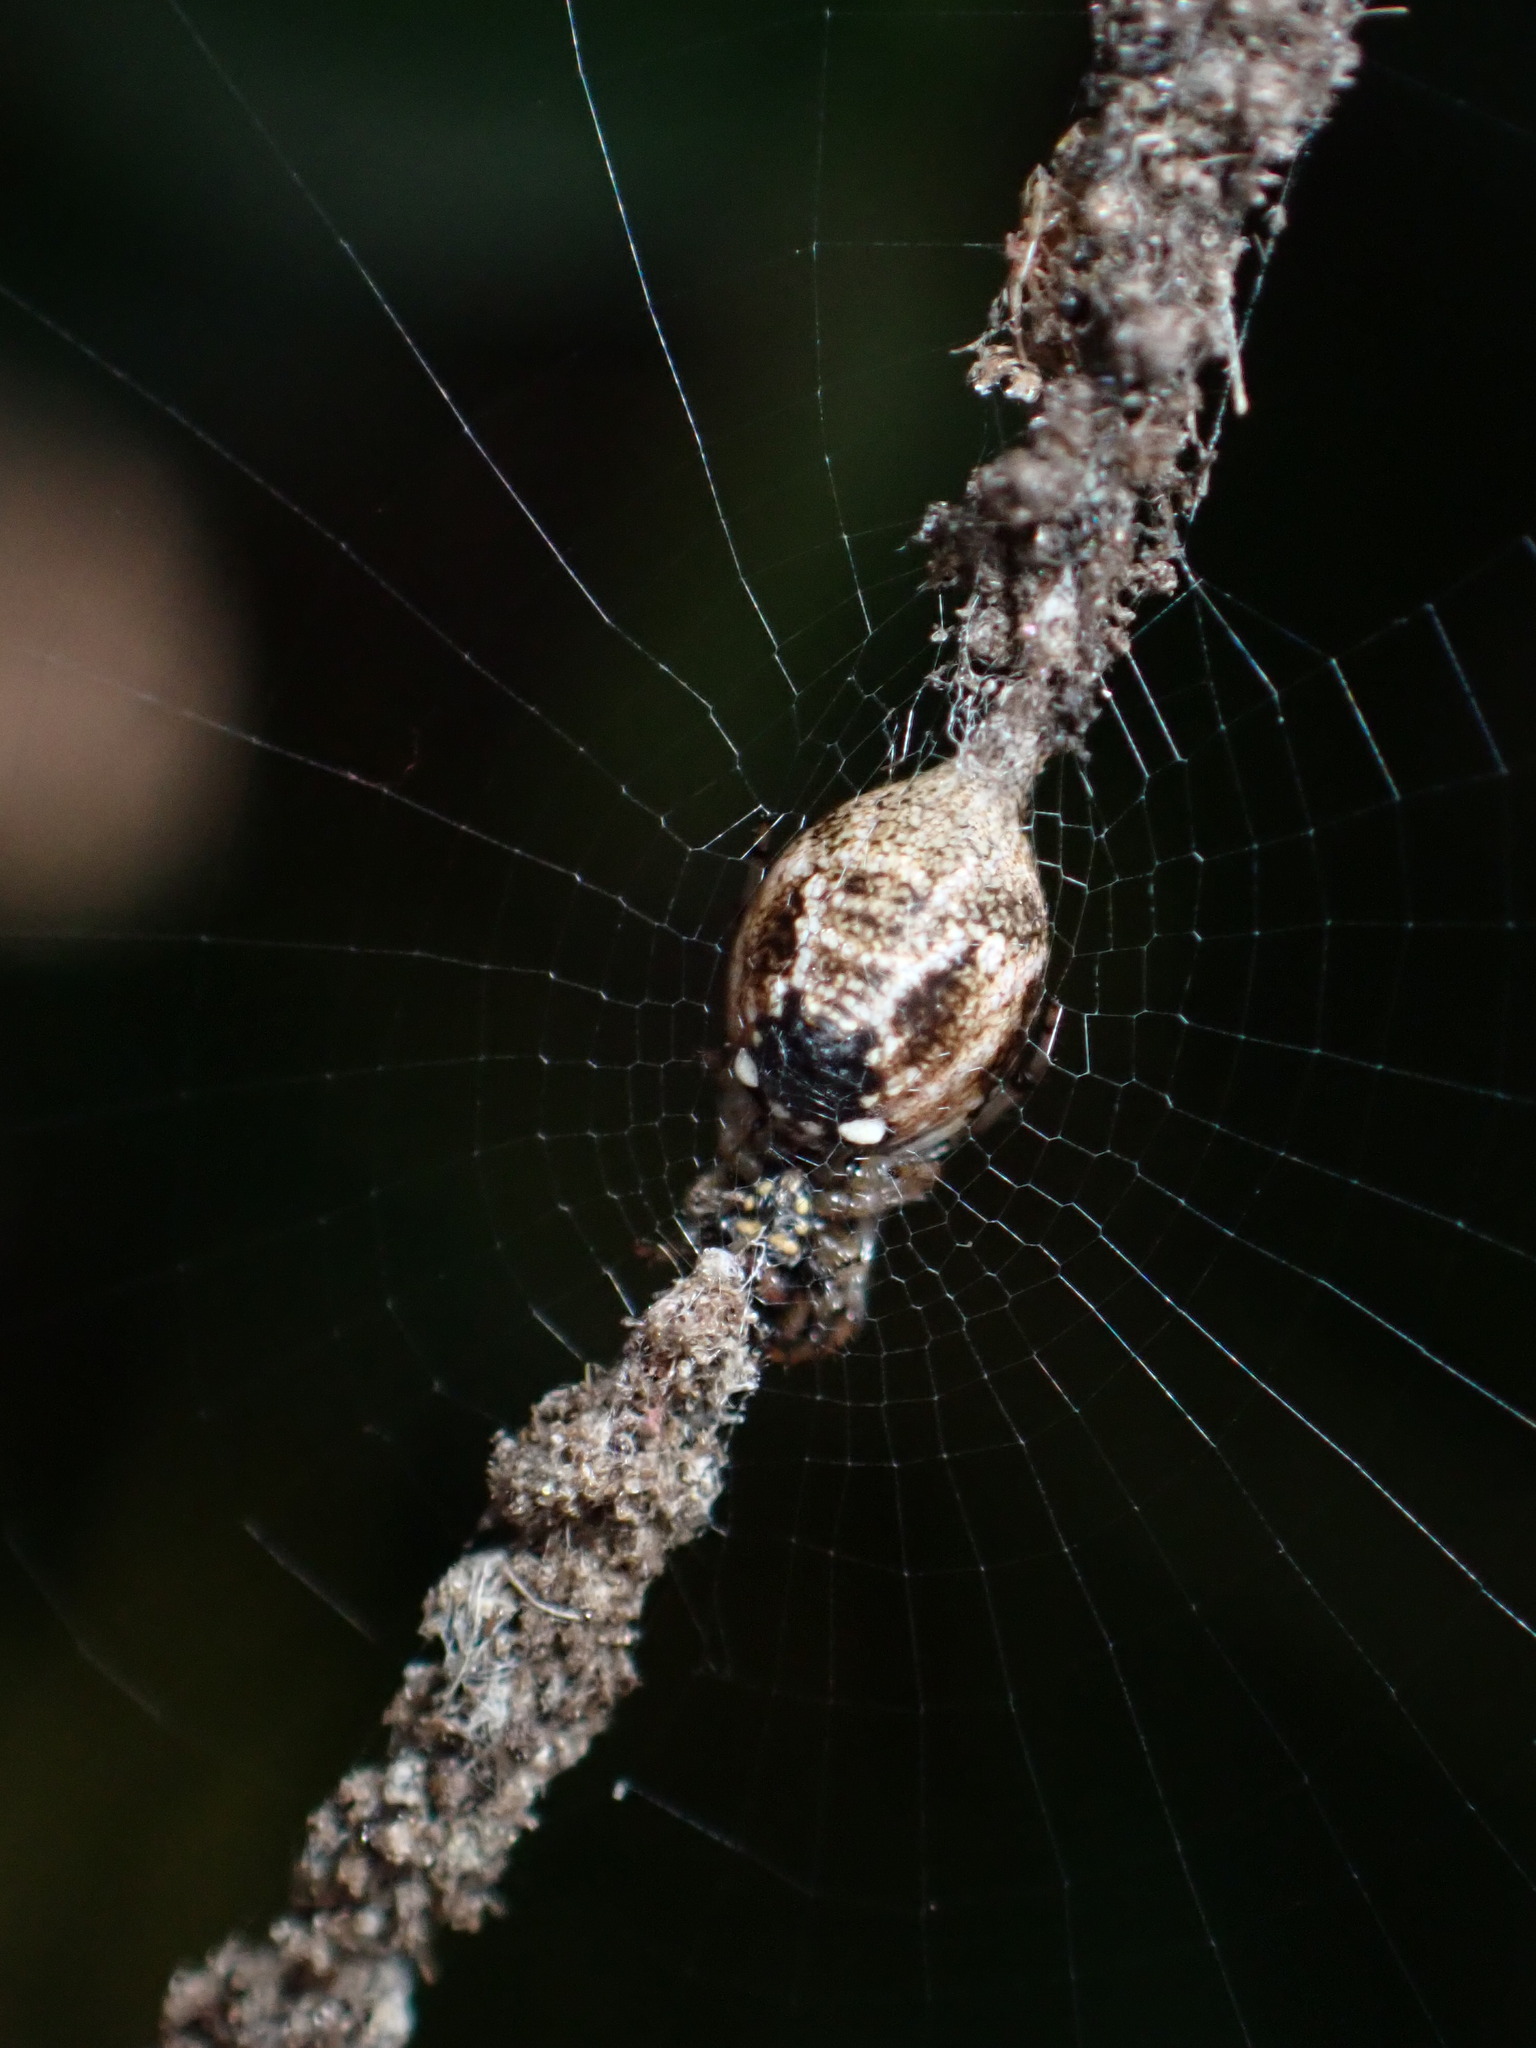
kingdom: Animalia
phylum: Arthropoda
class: Arachnida
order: Araneae
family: Araneidae
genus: Cyclosa
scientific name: Cyclosa turbinata
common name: Orb weavers
